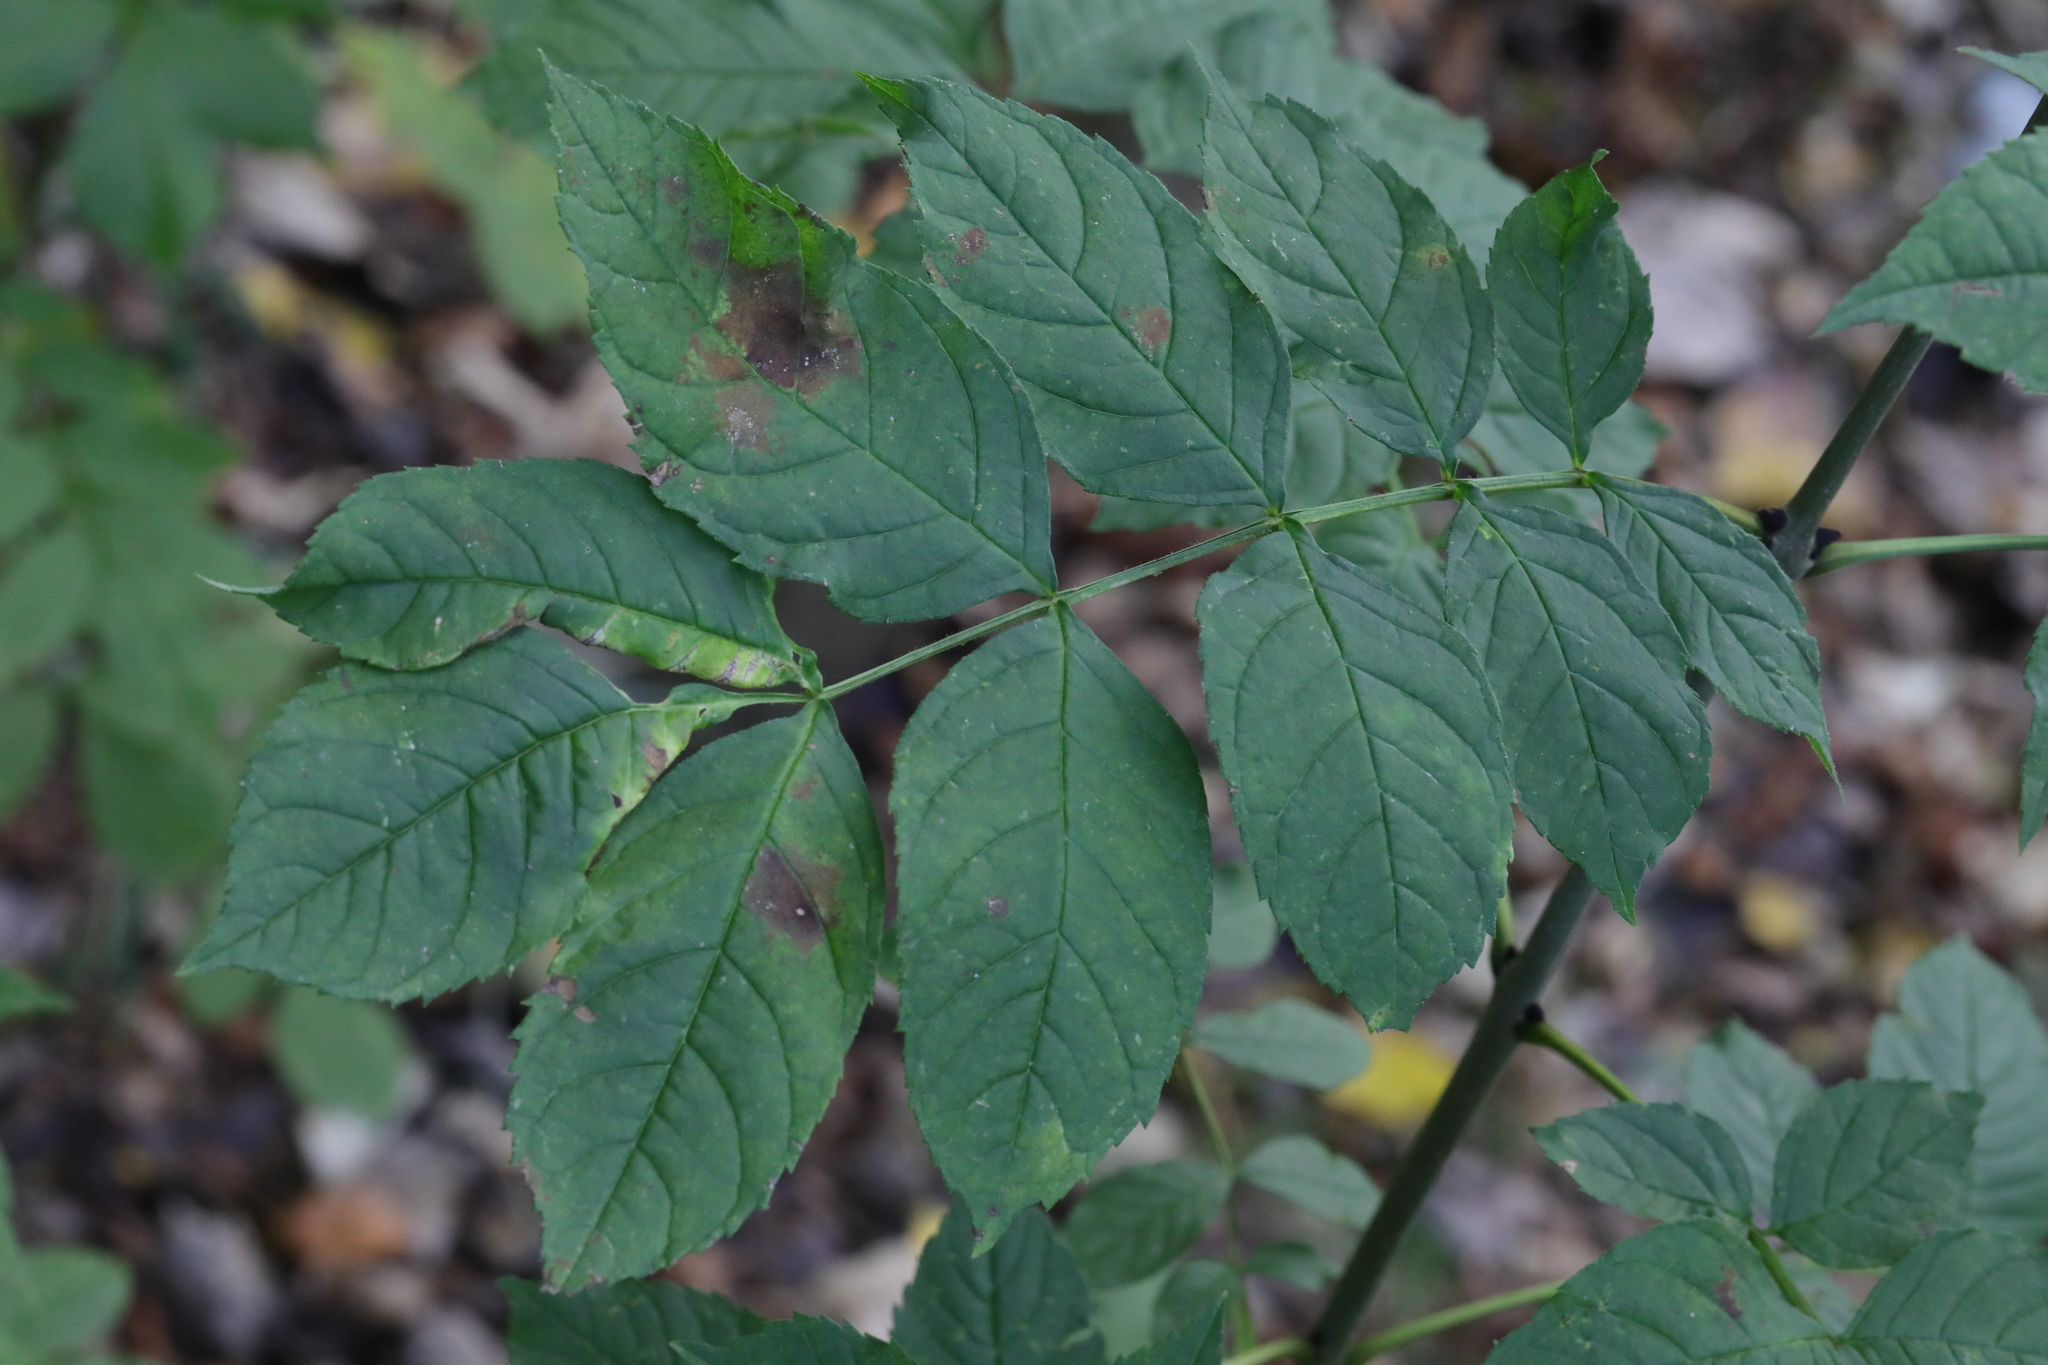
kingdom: Plantae
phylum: Tracheophyta
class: Magnoliopsida
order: Lamiales
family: Oleaceae
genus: Fraxinus
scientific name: Fraxinus excelsior
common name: European ash
